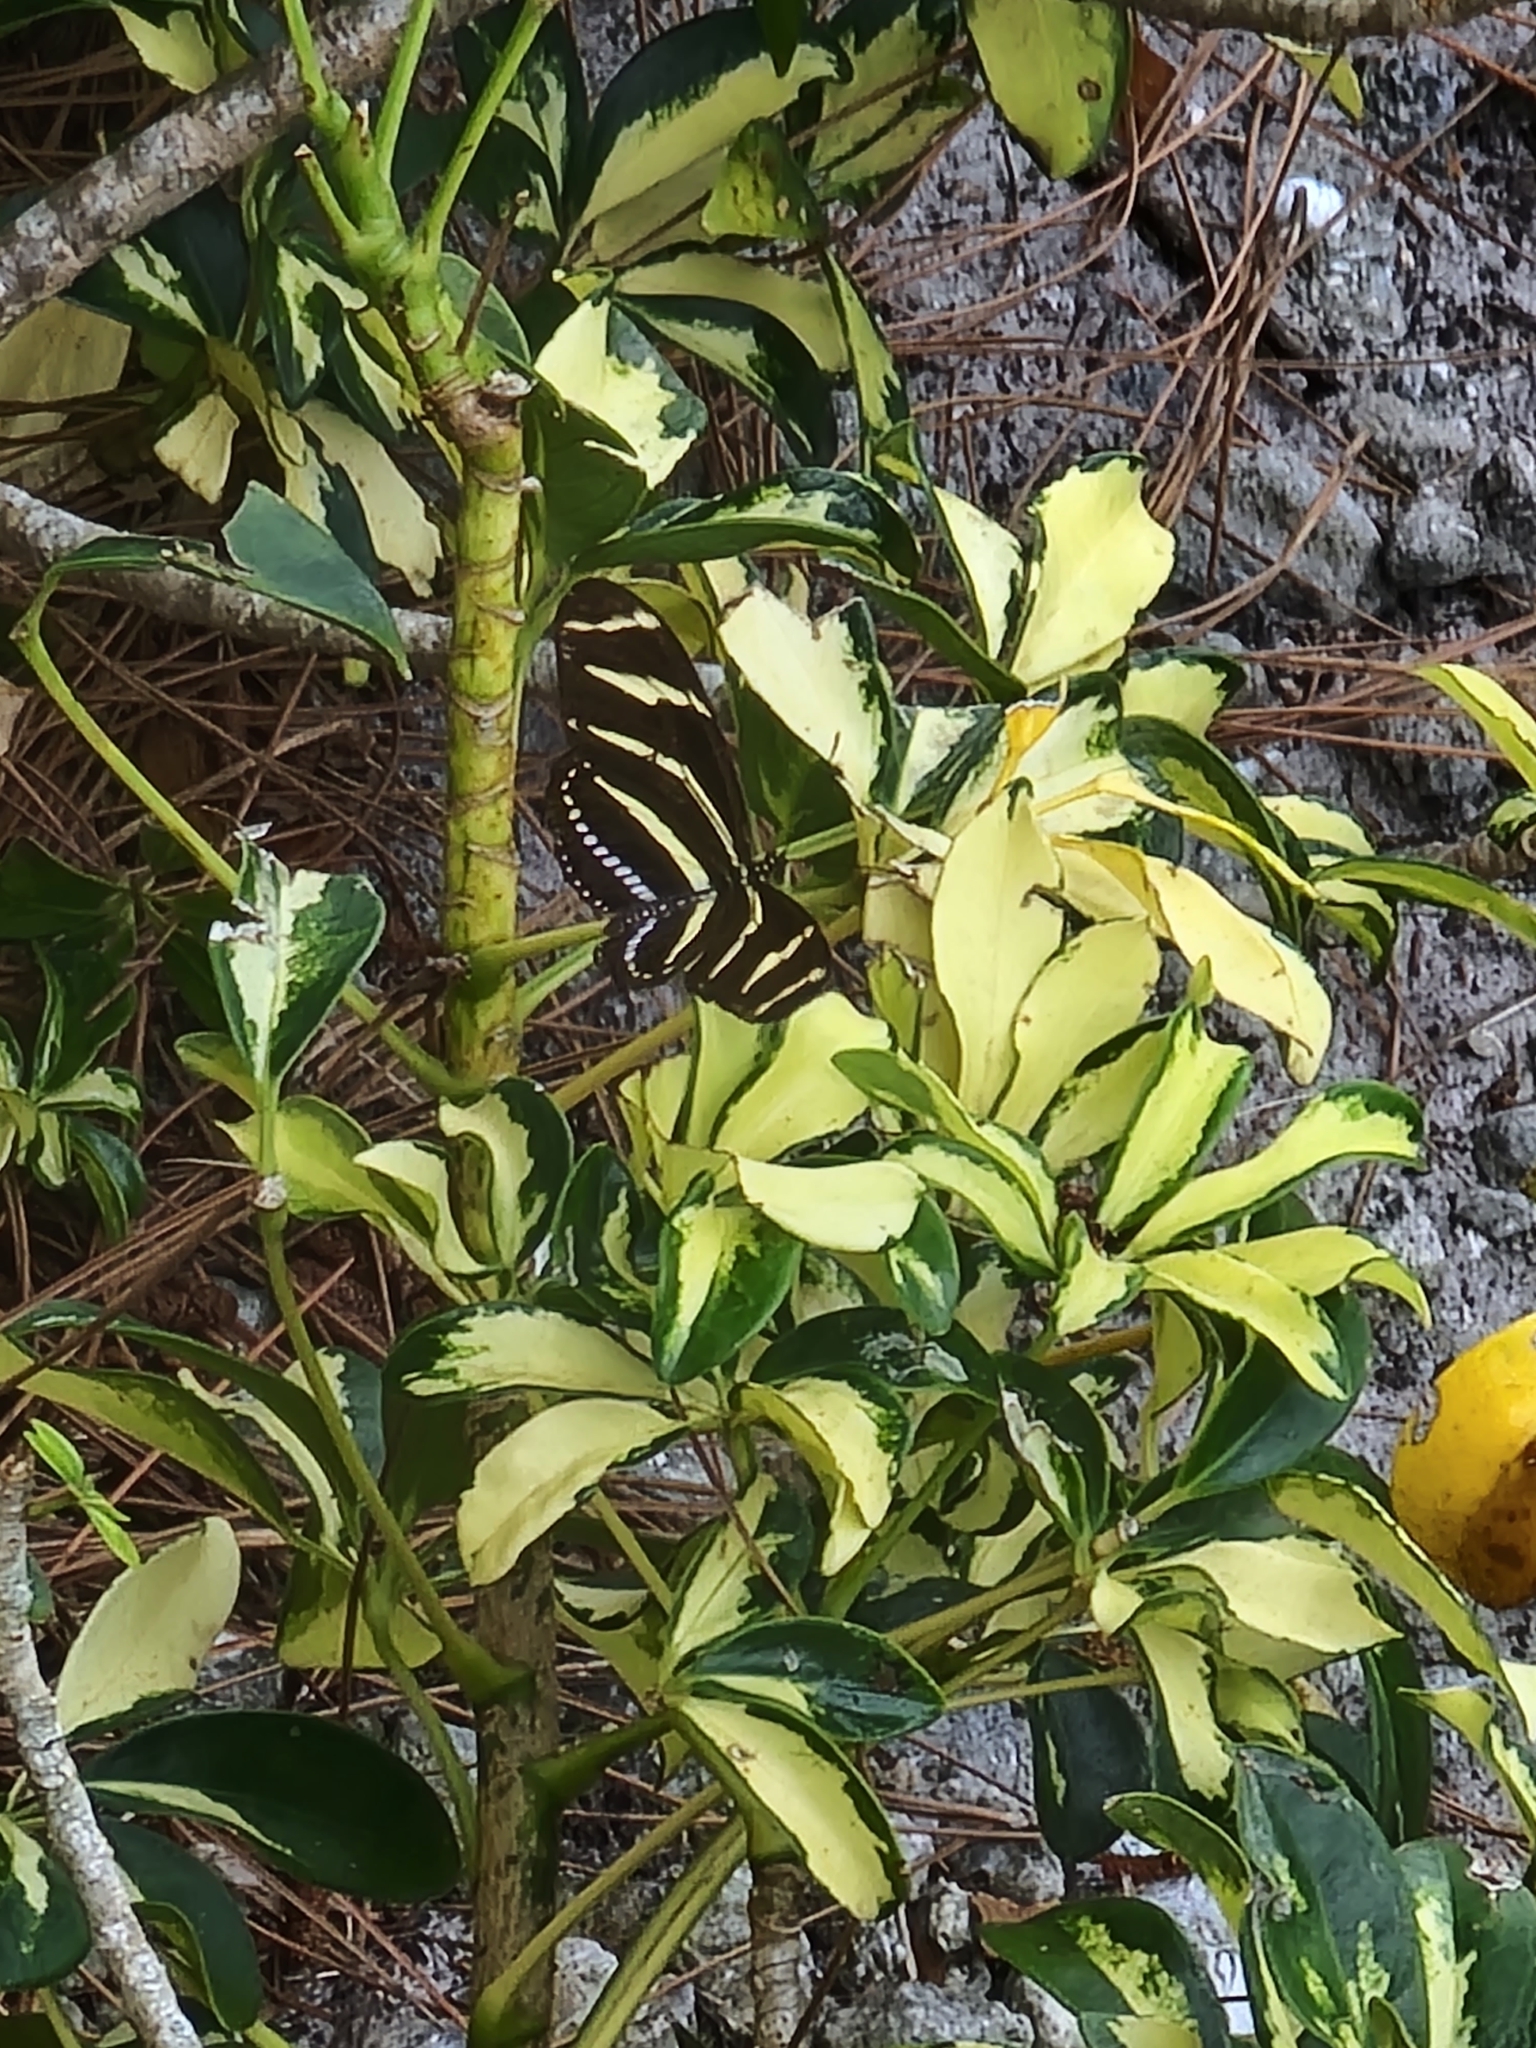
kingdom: Animalia
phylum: Arthropoda
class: Insecta
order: Lepidoptera
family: Nymphalidae
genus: Heliconius
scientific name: Heliconius charithonia
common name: Zebra long wing
